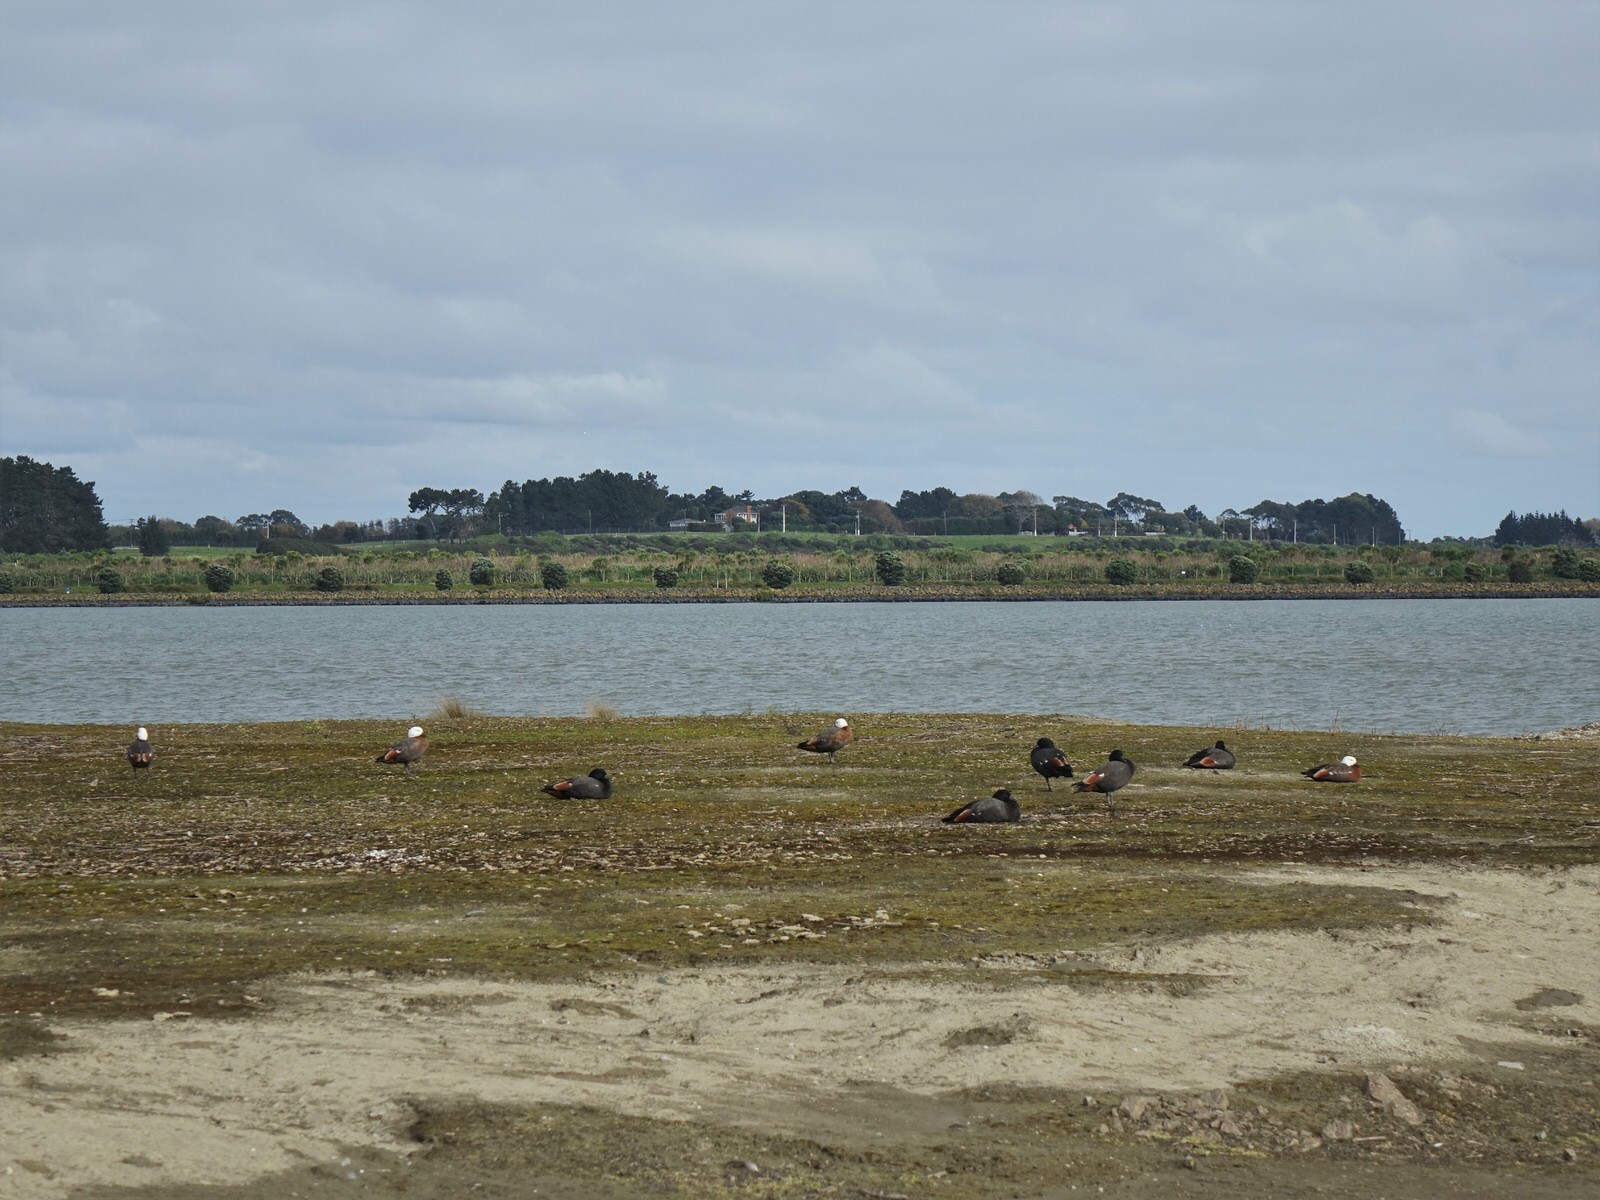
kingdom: Animalia
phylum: Chordata
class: Aves
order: Anseriformes
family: Anatidae
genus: Tadorna
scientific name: Tadorna variegata
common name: Paradise shelduck
